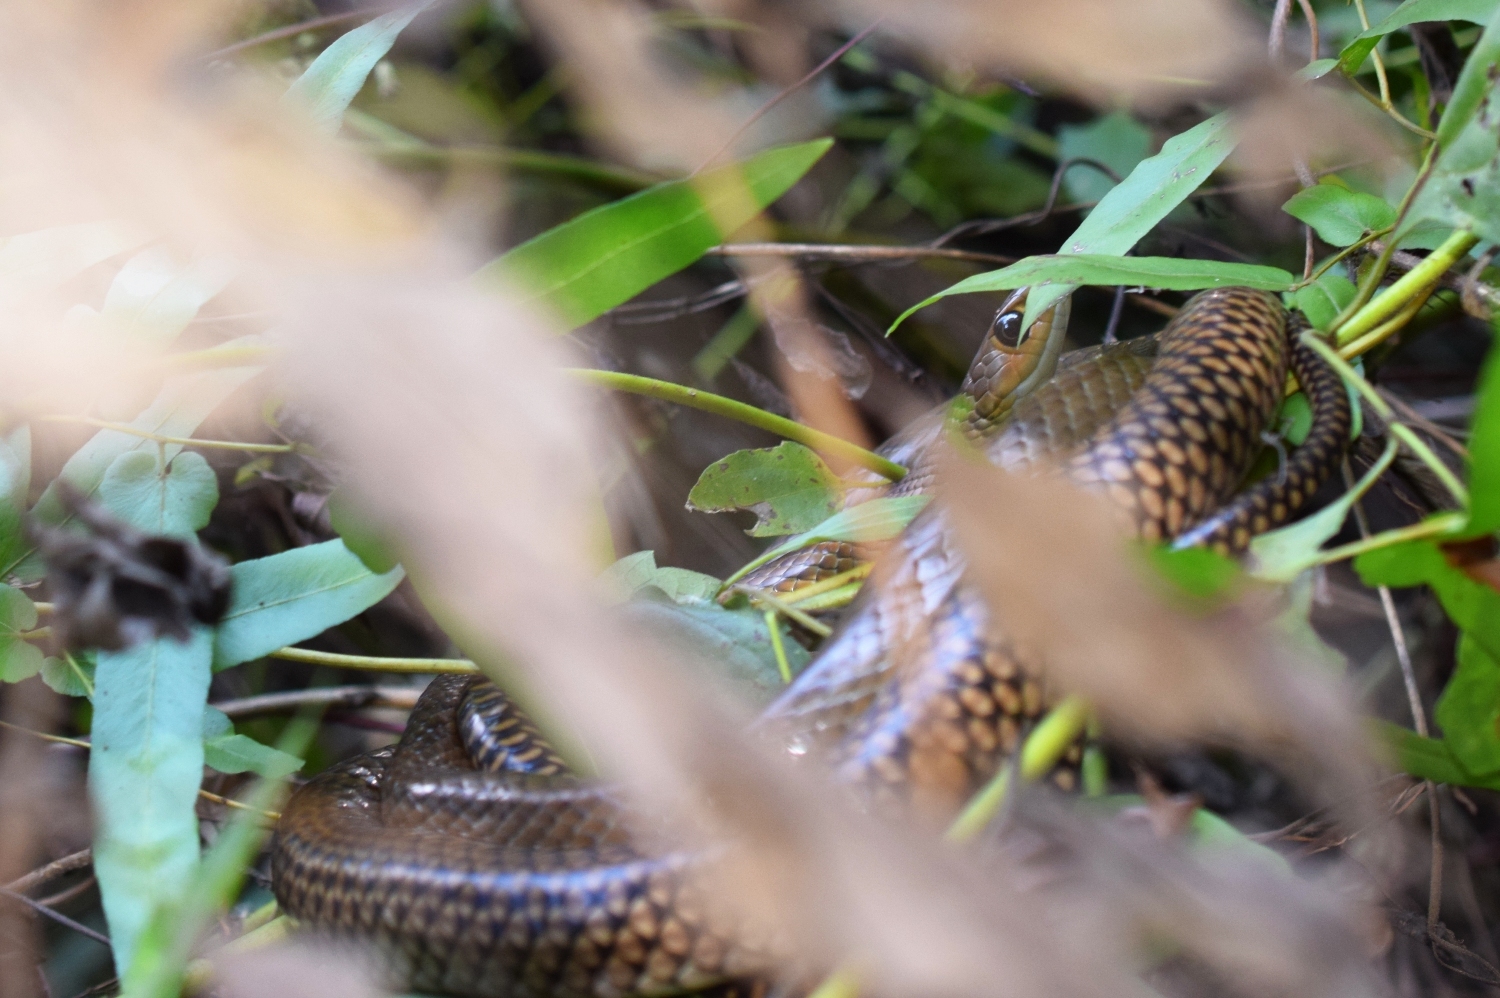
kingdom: Animalia
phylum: Chordata
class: Squamata
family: Colubridae
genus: Ptyas
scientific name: Ptyas korros
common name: Indo-chinese rat snake
